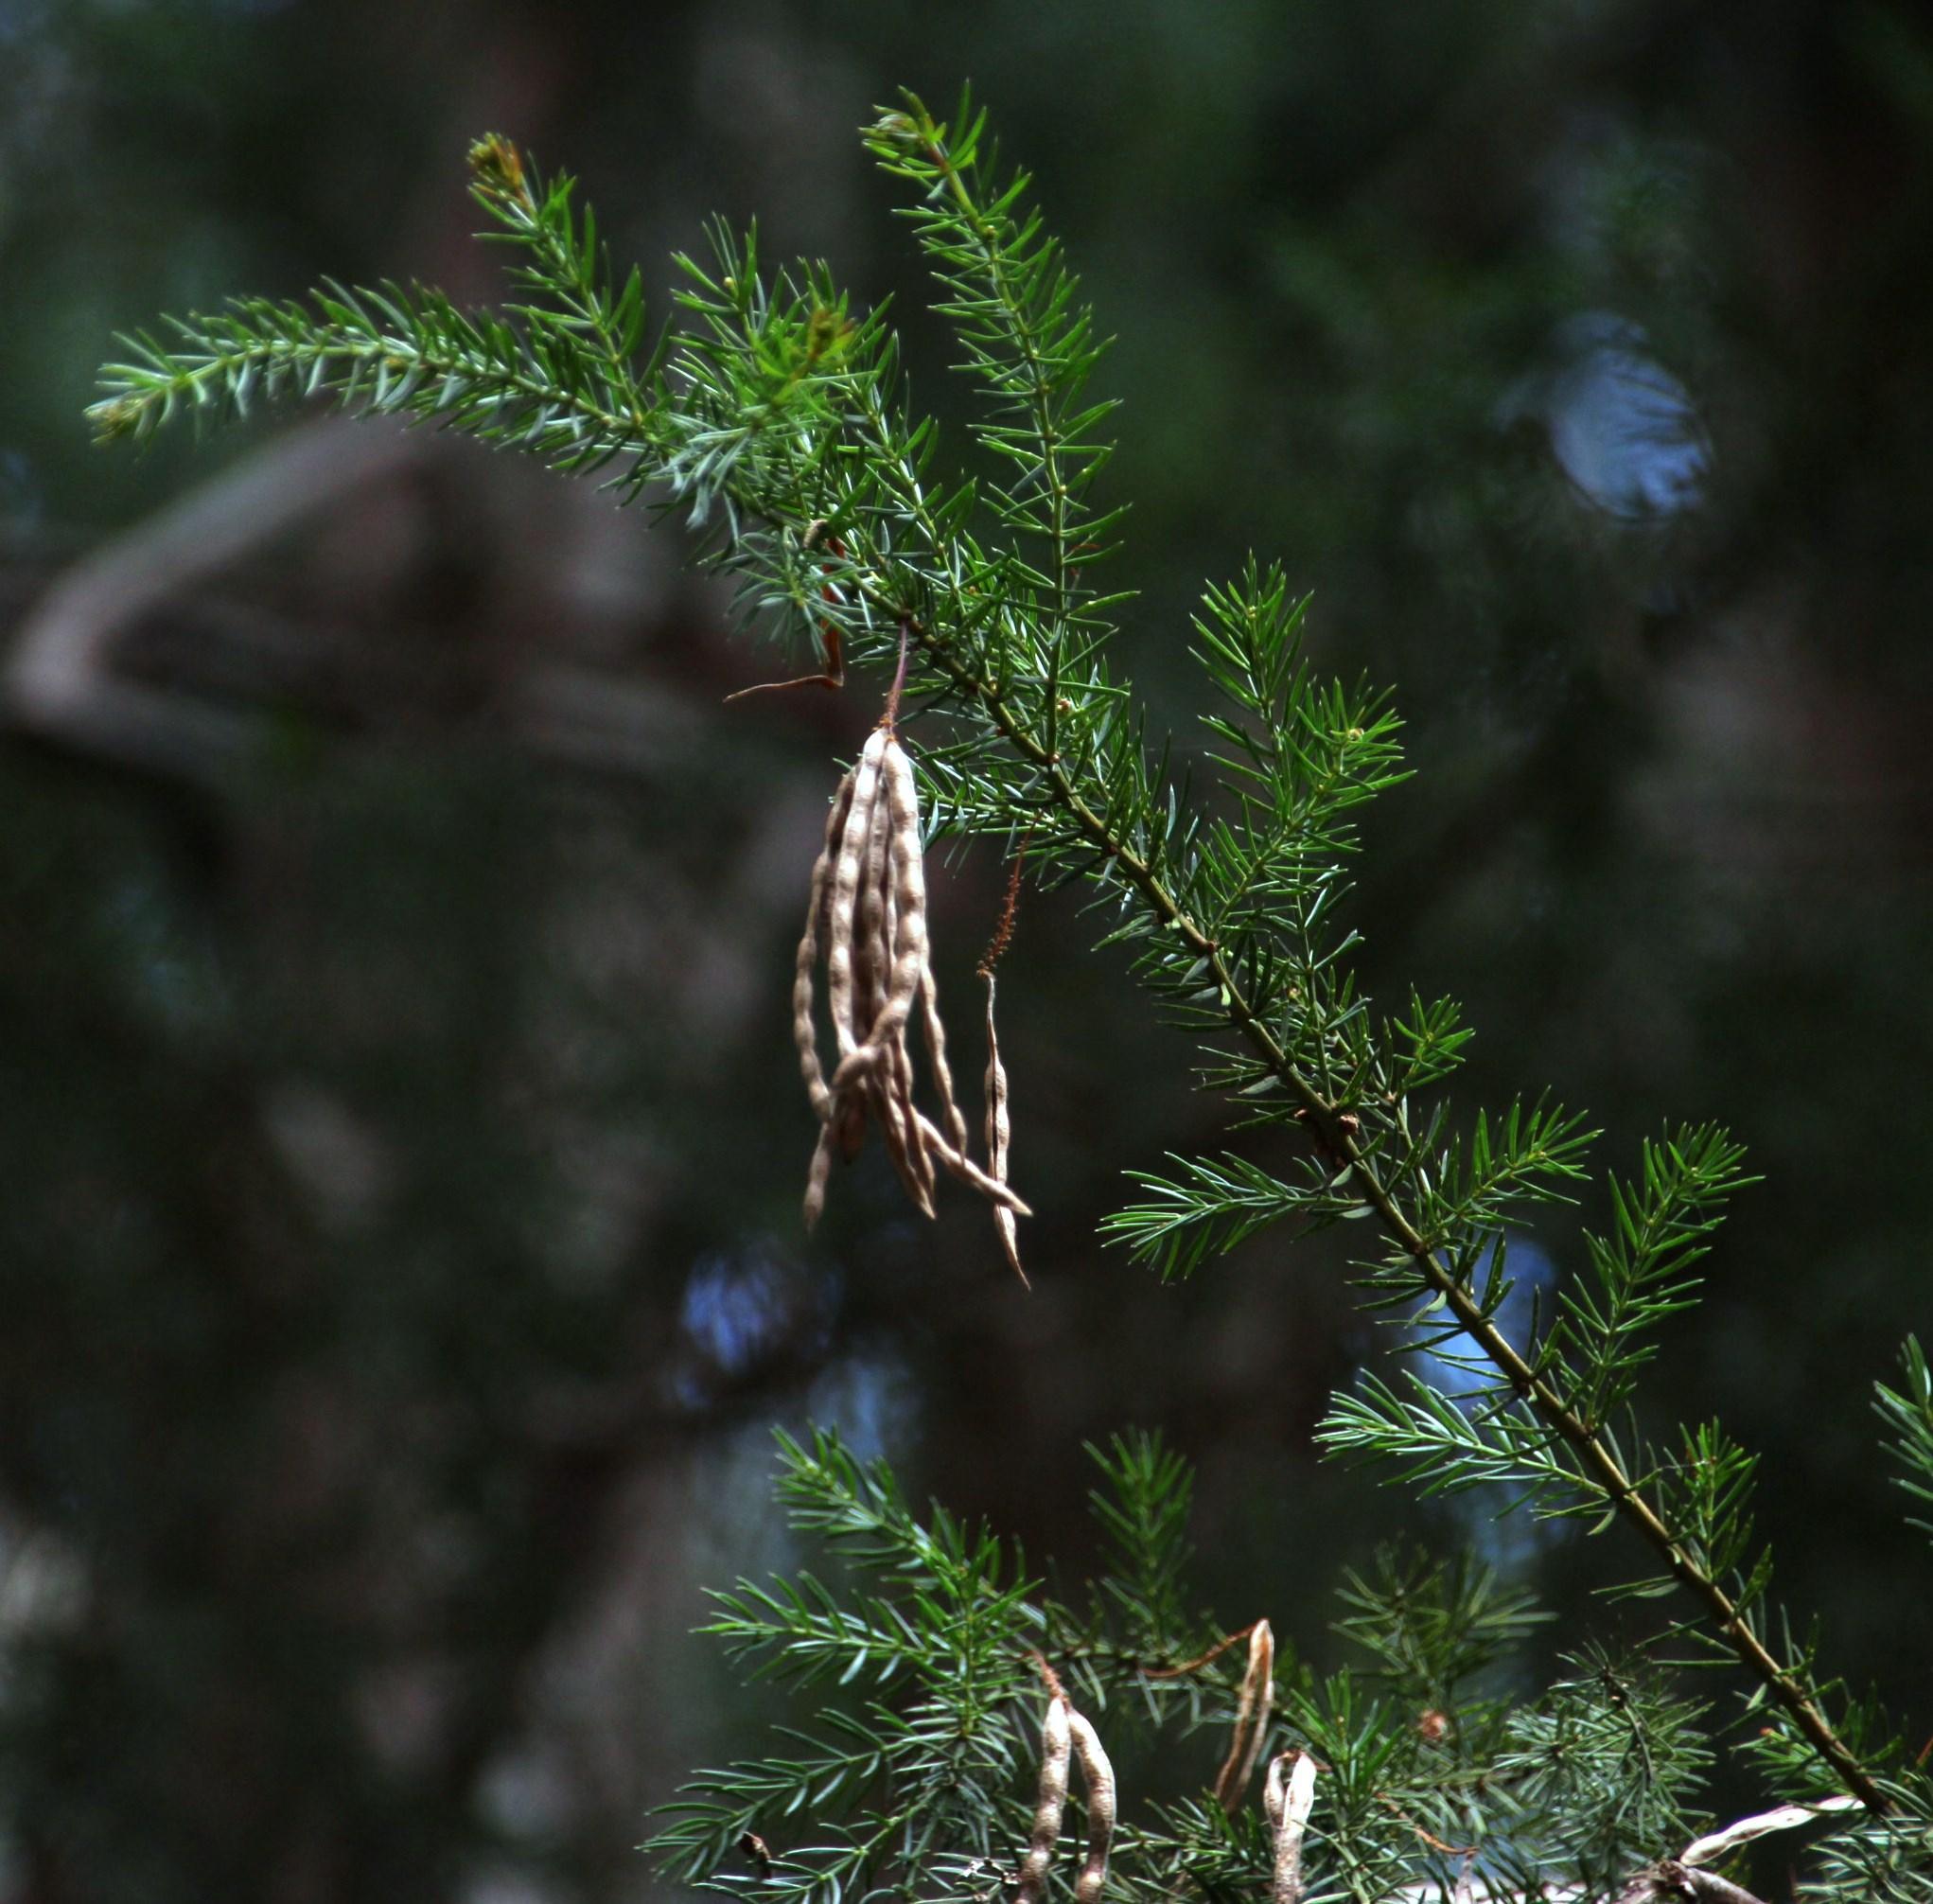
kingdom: Plantae
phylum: Tracheophyta
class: Magnoliopsida
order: Fabales
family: Fabaceae
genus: Acacia
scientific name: Acacia verticillata
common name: Prickly moses
